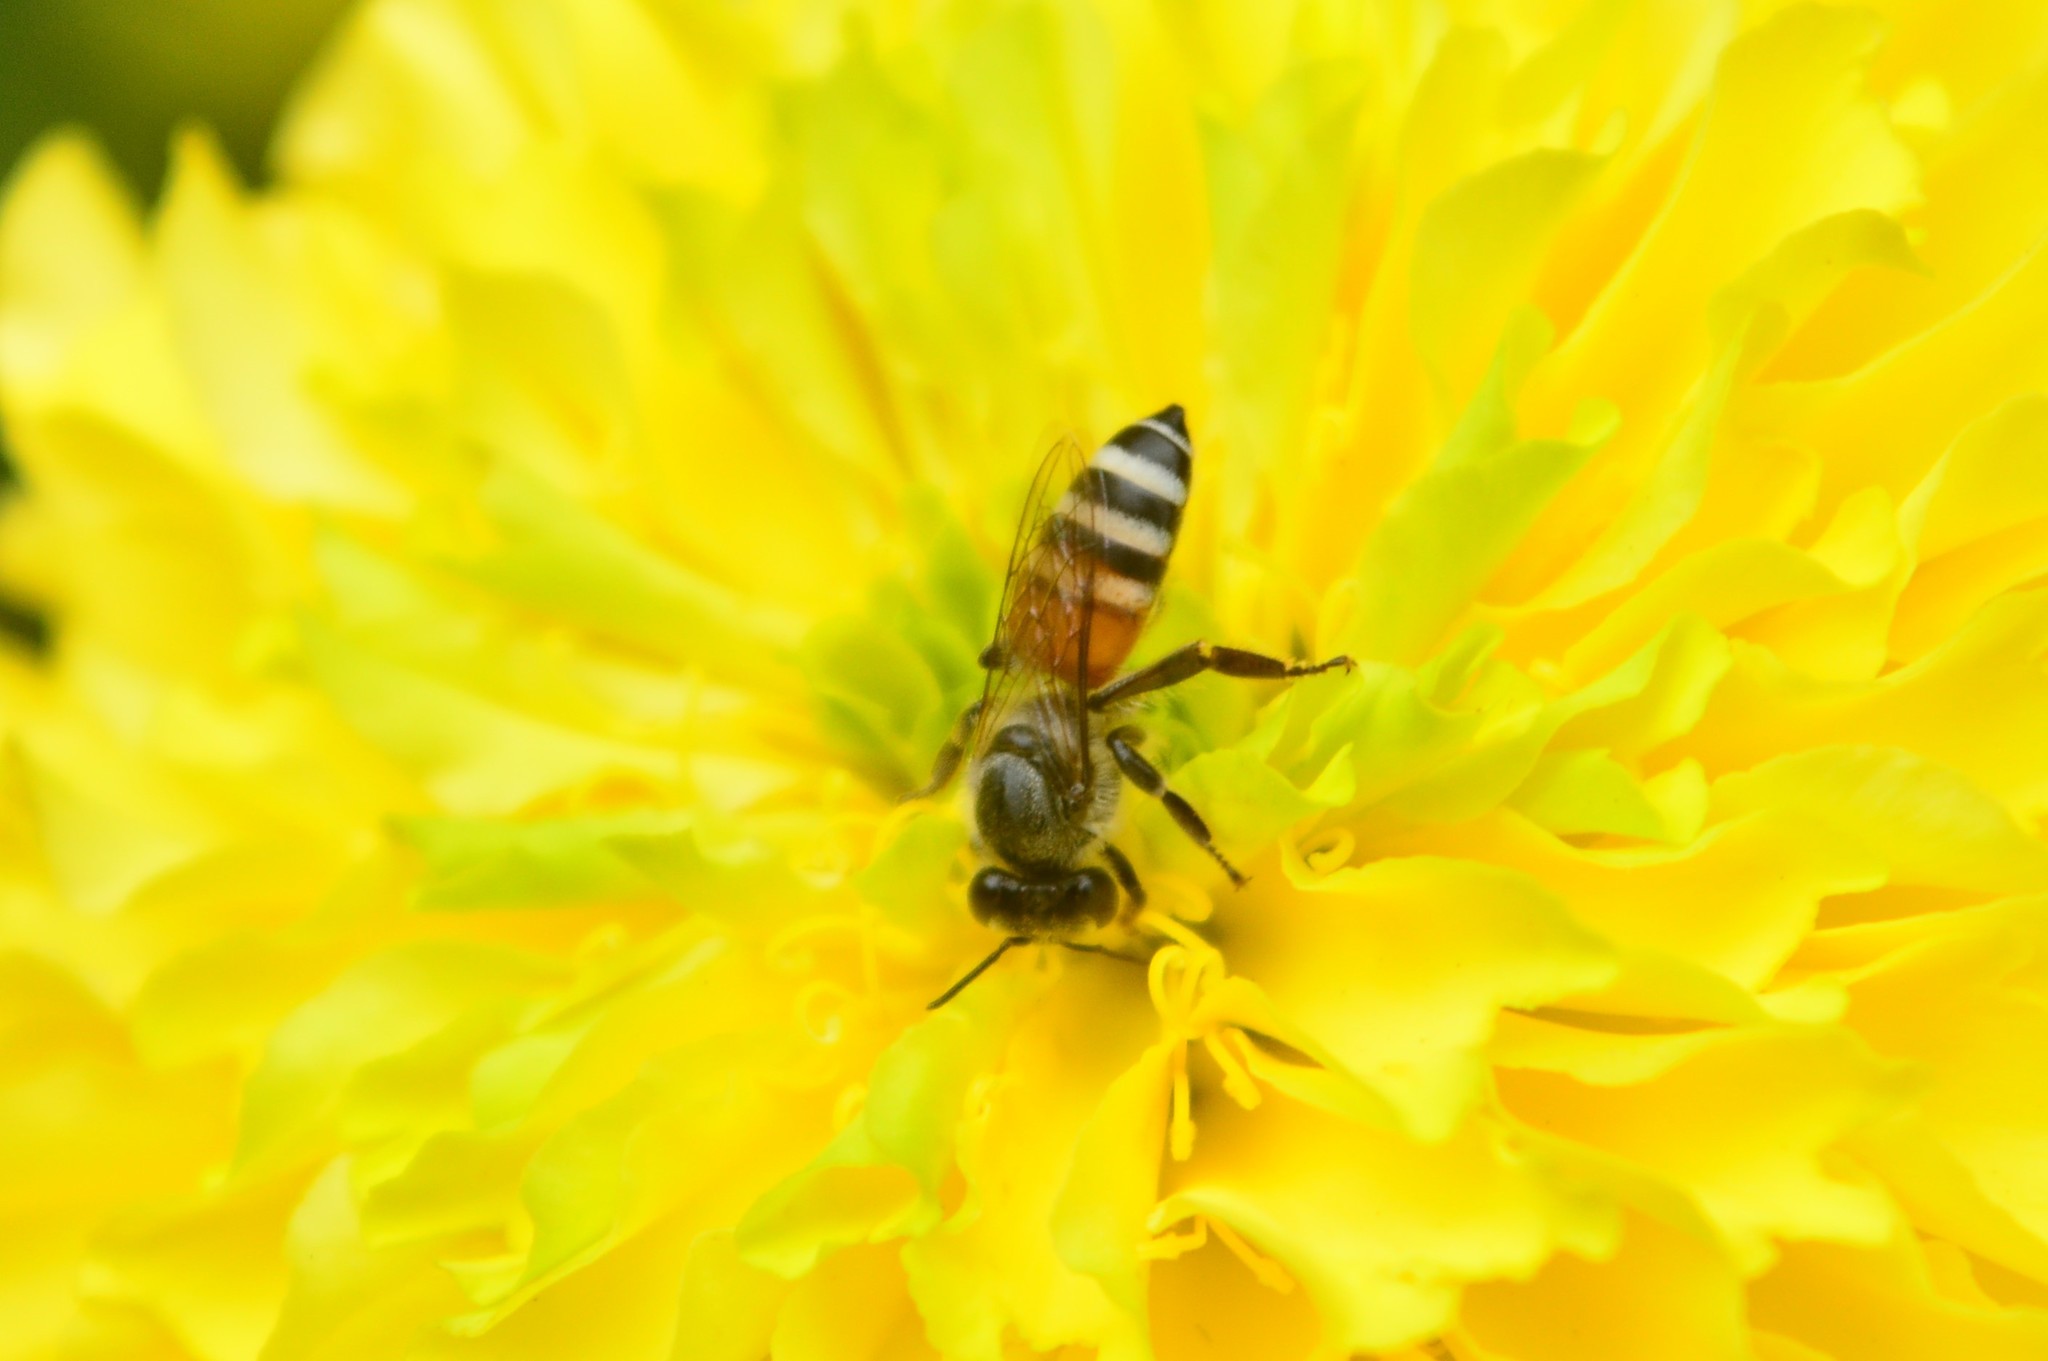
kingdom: Animalia
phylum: Arthropoda
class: Insecta
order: Hymenoptera
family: Apidae
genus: Apis
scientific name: Apis florea
